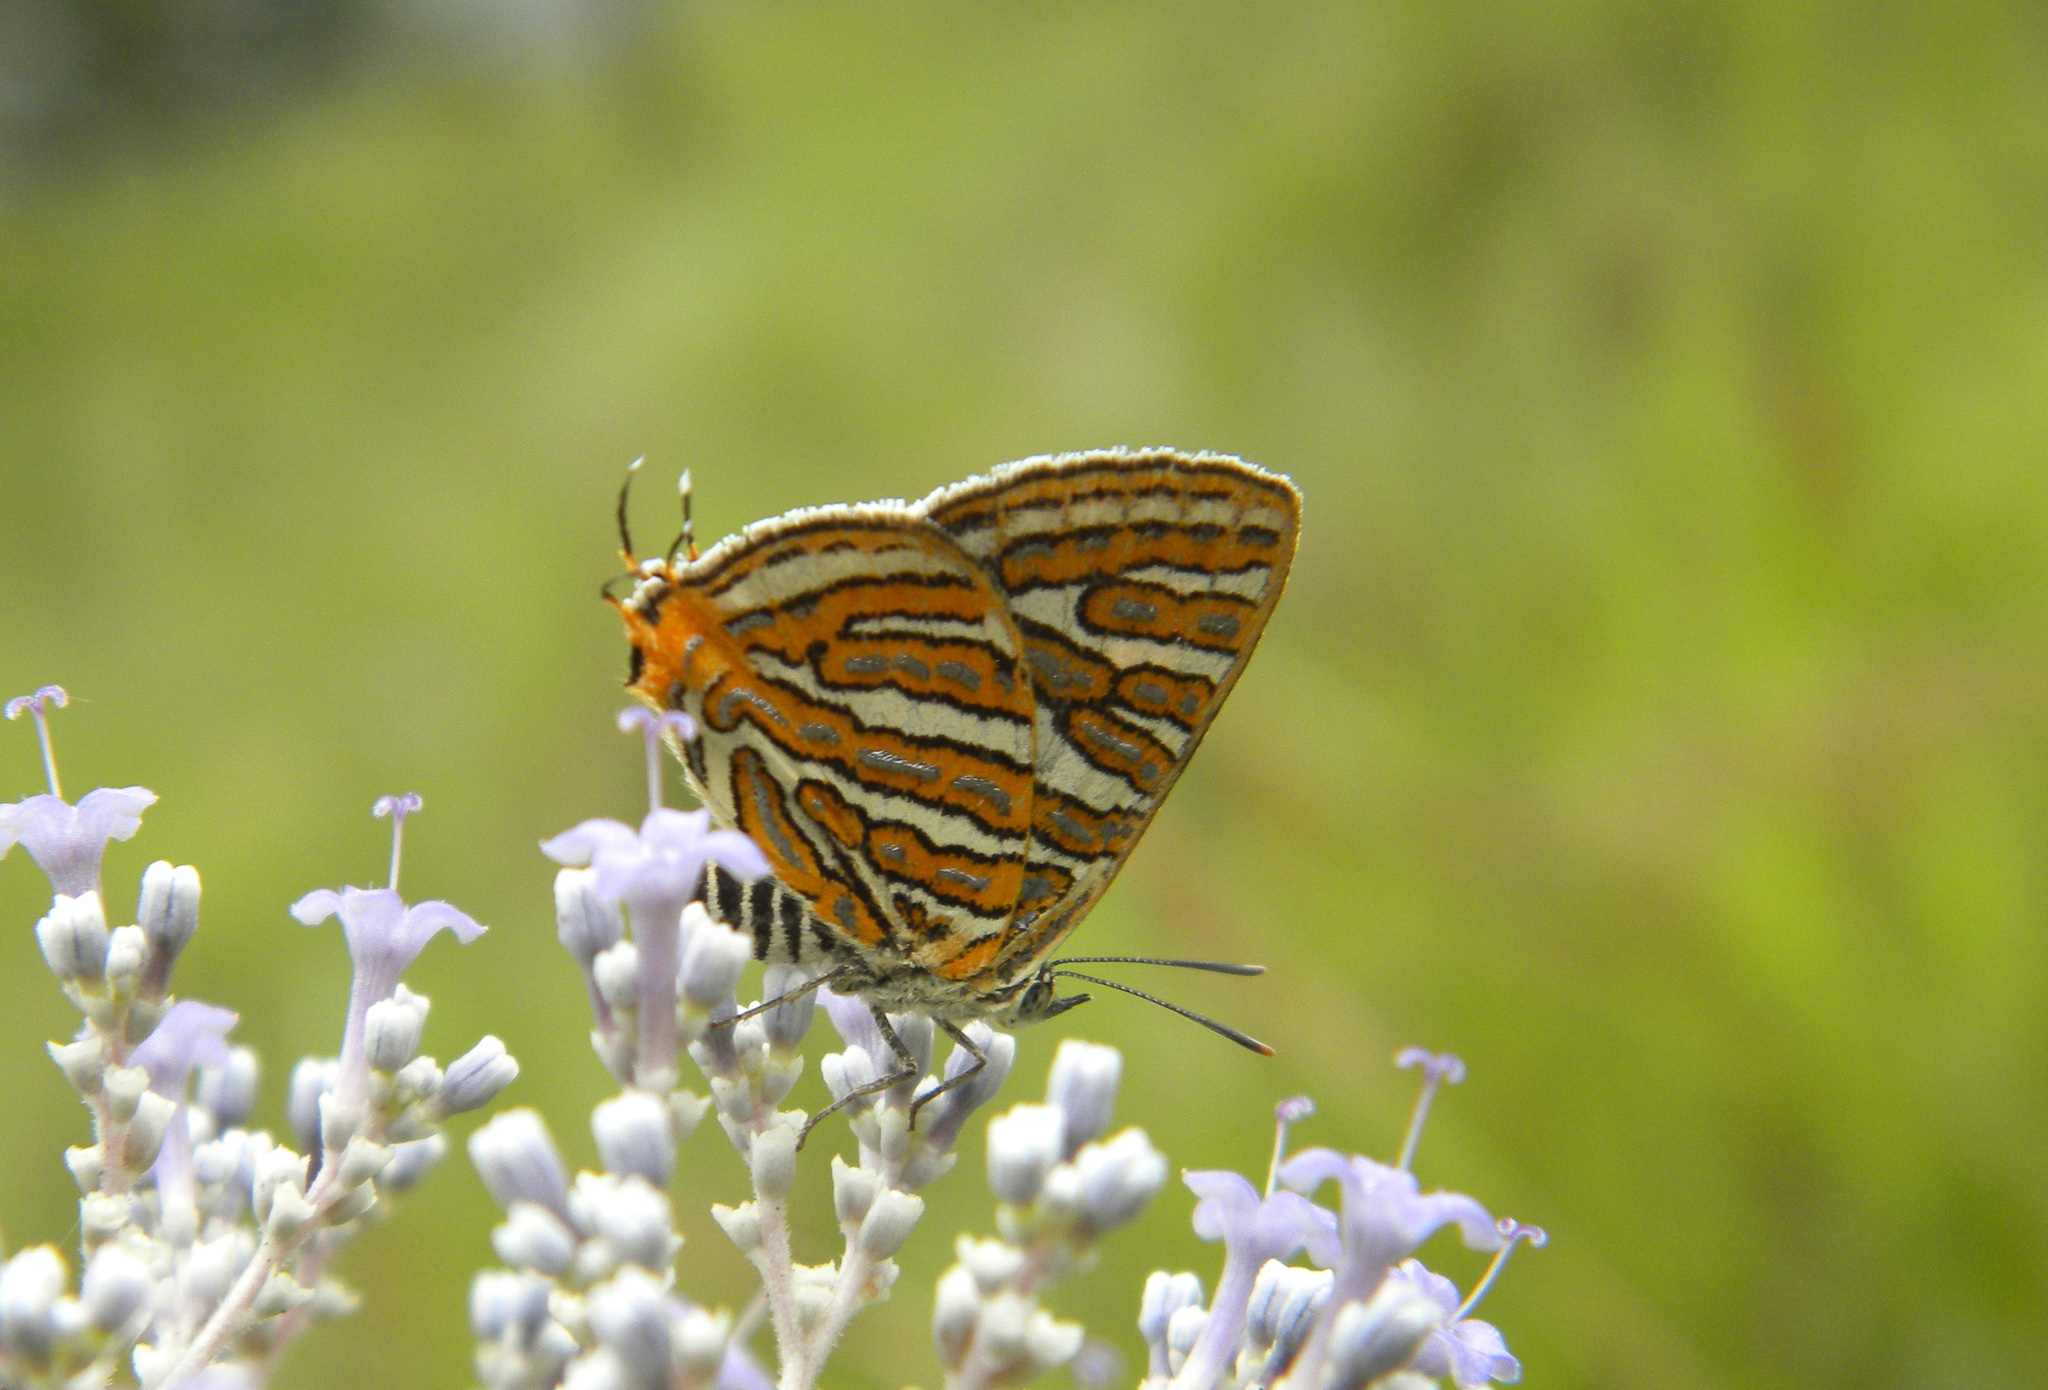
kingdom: Animalia
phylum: Arthropoda
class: Insecta
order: Lepidoptera
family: Lycaenidae
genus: Cigaritis
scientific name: Cigaritis vulcanus
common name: Common silverline
